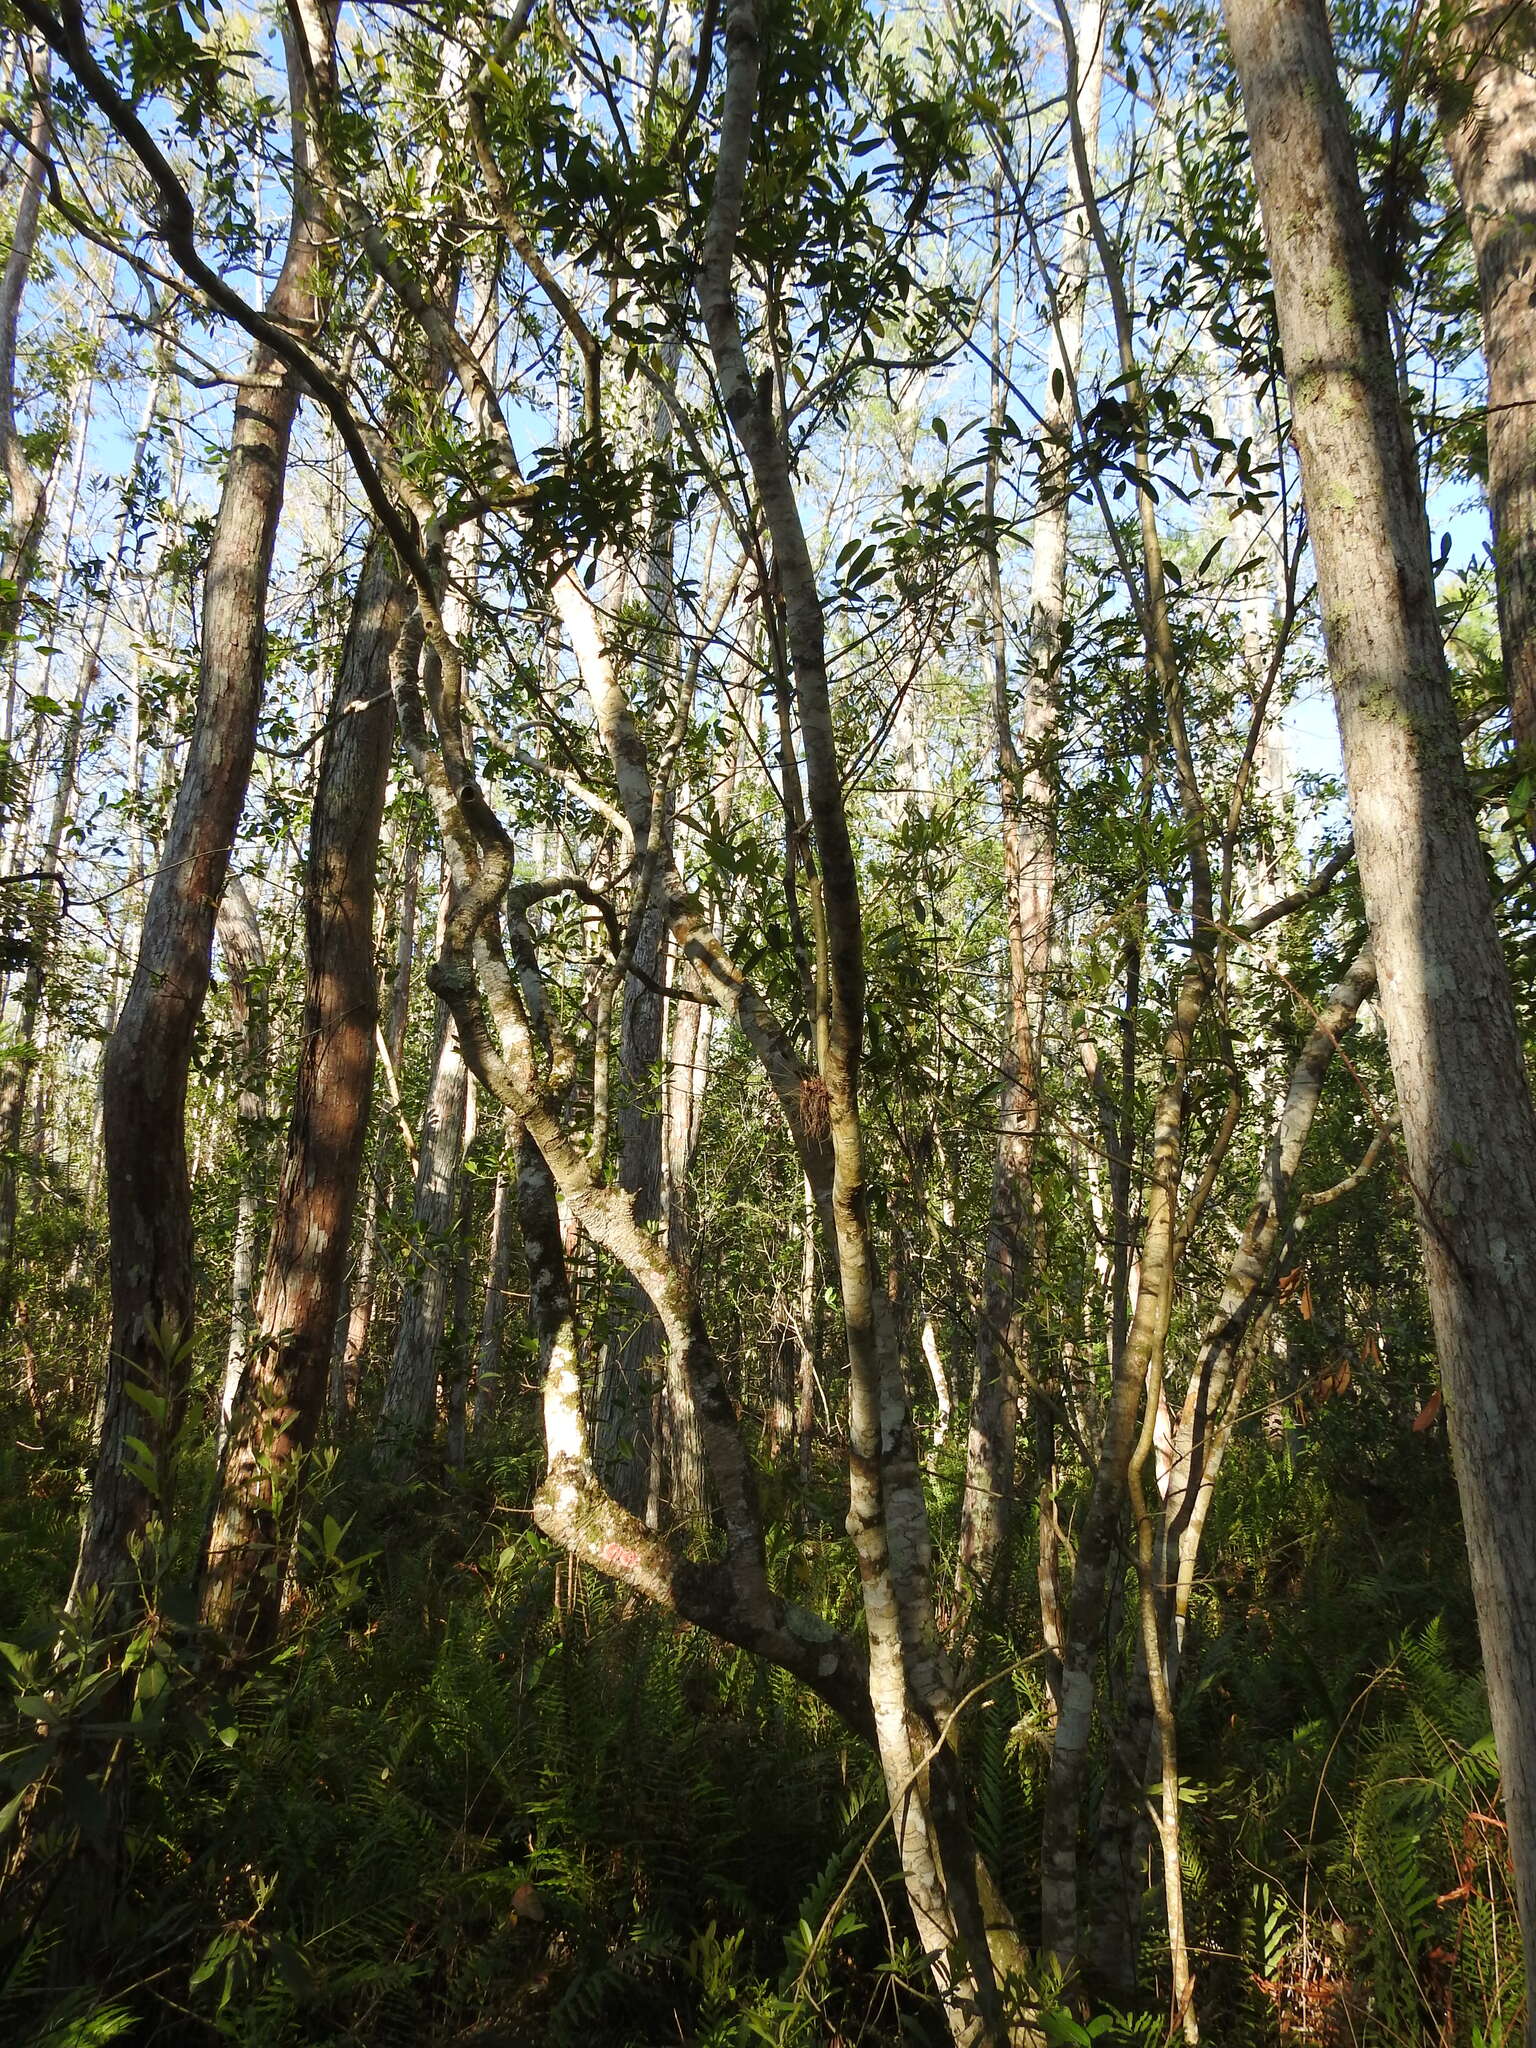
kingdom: Plantae
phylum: Tracheophyta
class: Magnoliopsida
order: Aquifoliales
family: Aquifoliaceae
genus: Ilex
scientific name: Ilex cassine
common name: Dahoon
